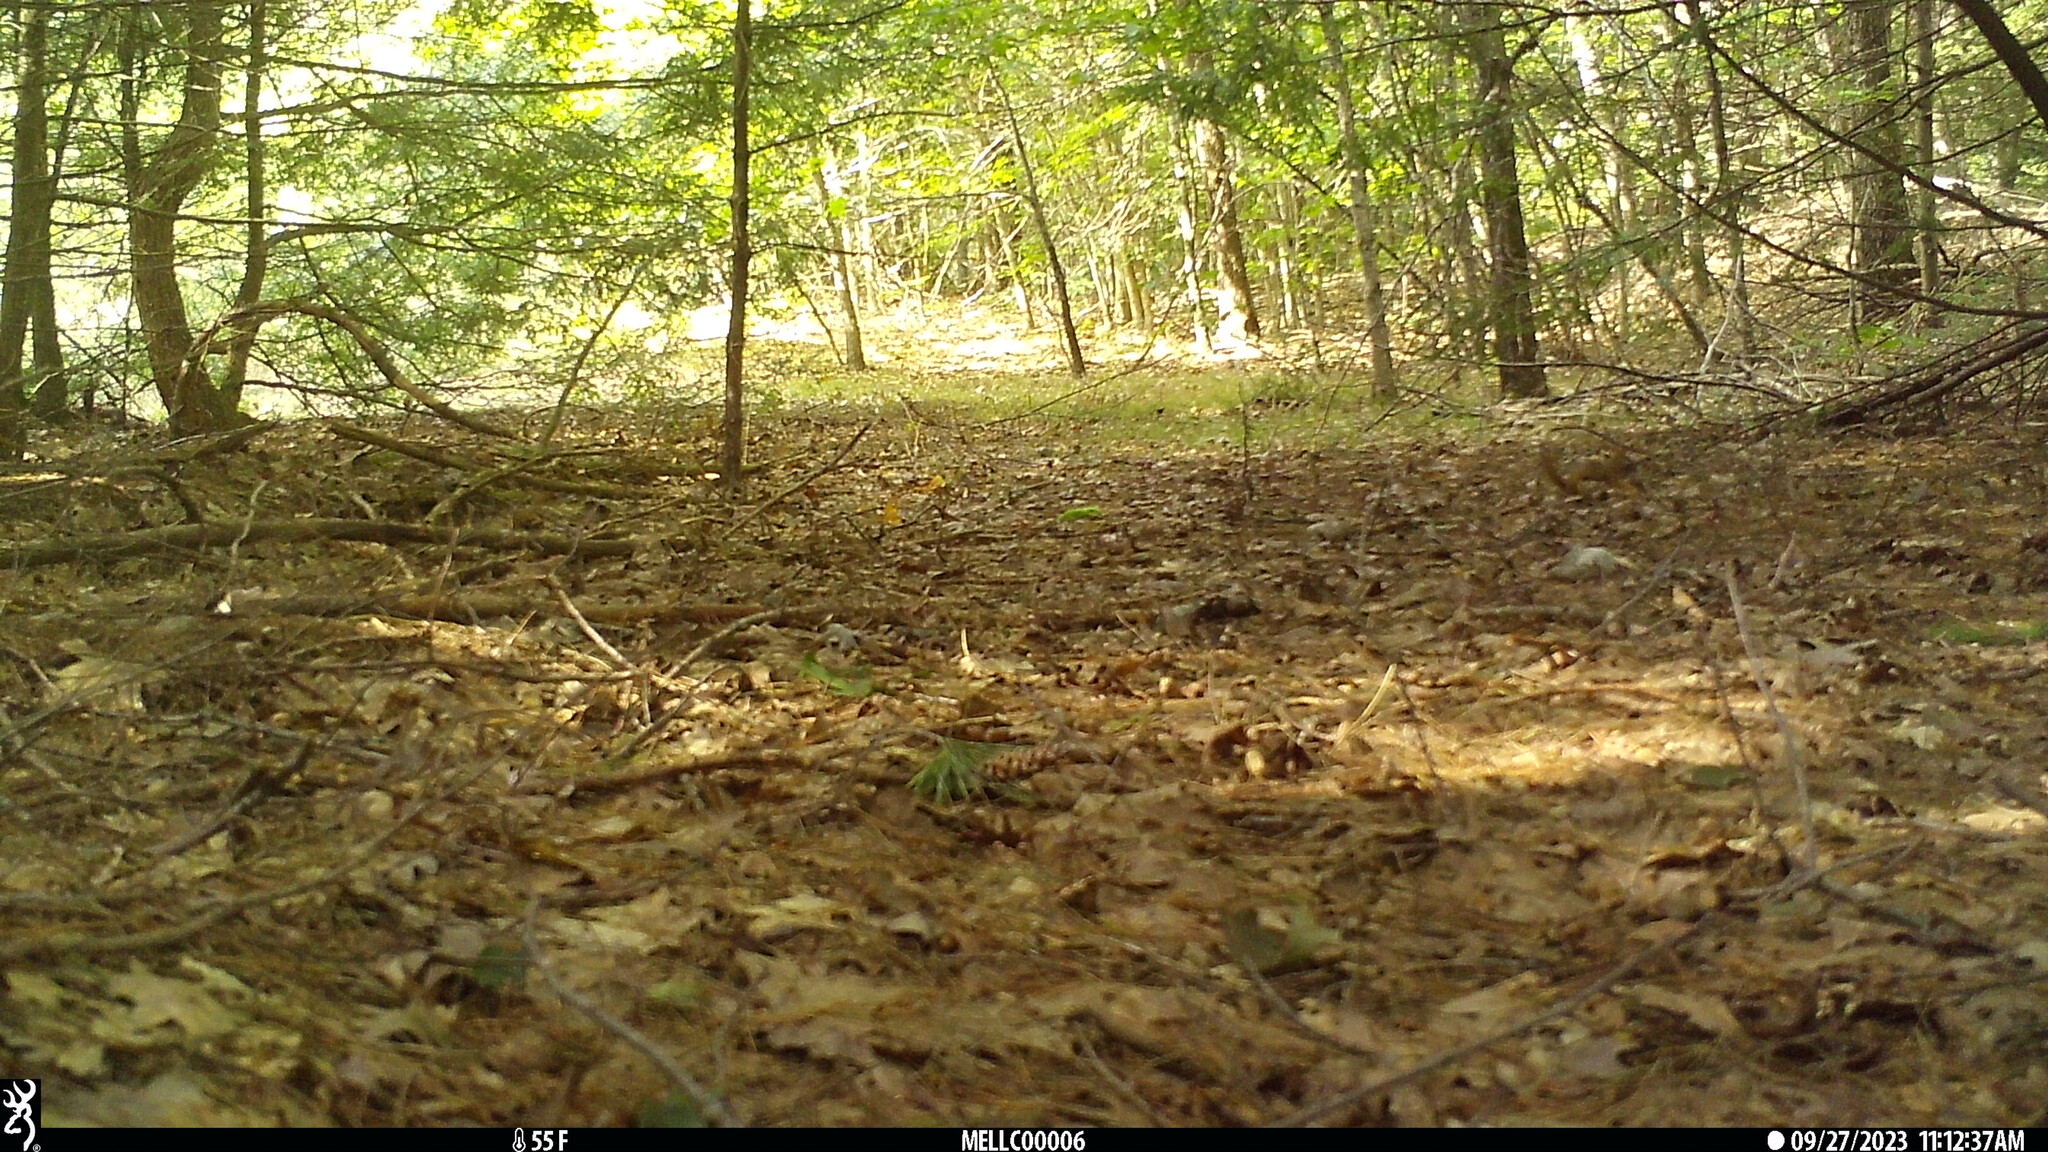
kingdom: Animalia
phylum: Chordata
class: Mammalia
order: Rodentia
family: Sciuridae
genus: Tamiasciurus
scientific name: Tamiasciurus hudsonicus
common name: Red squirrel
